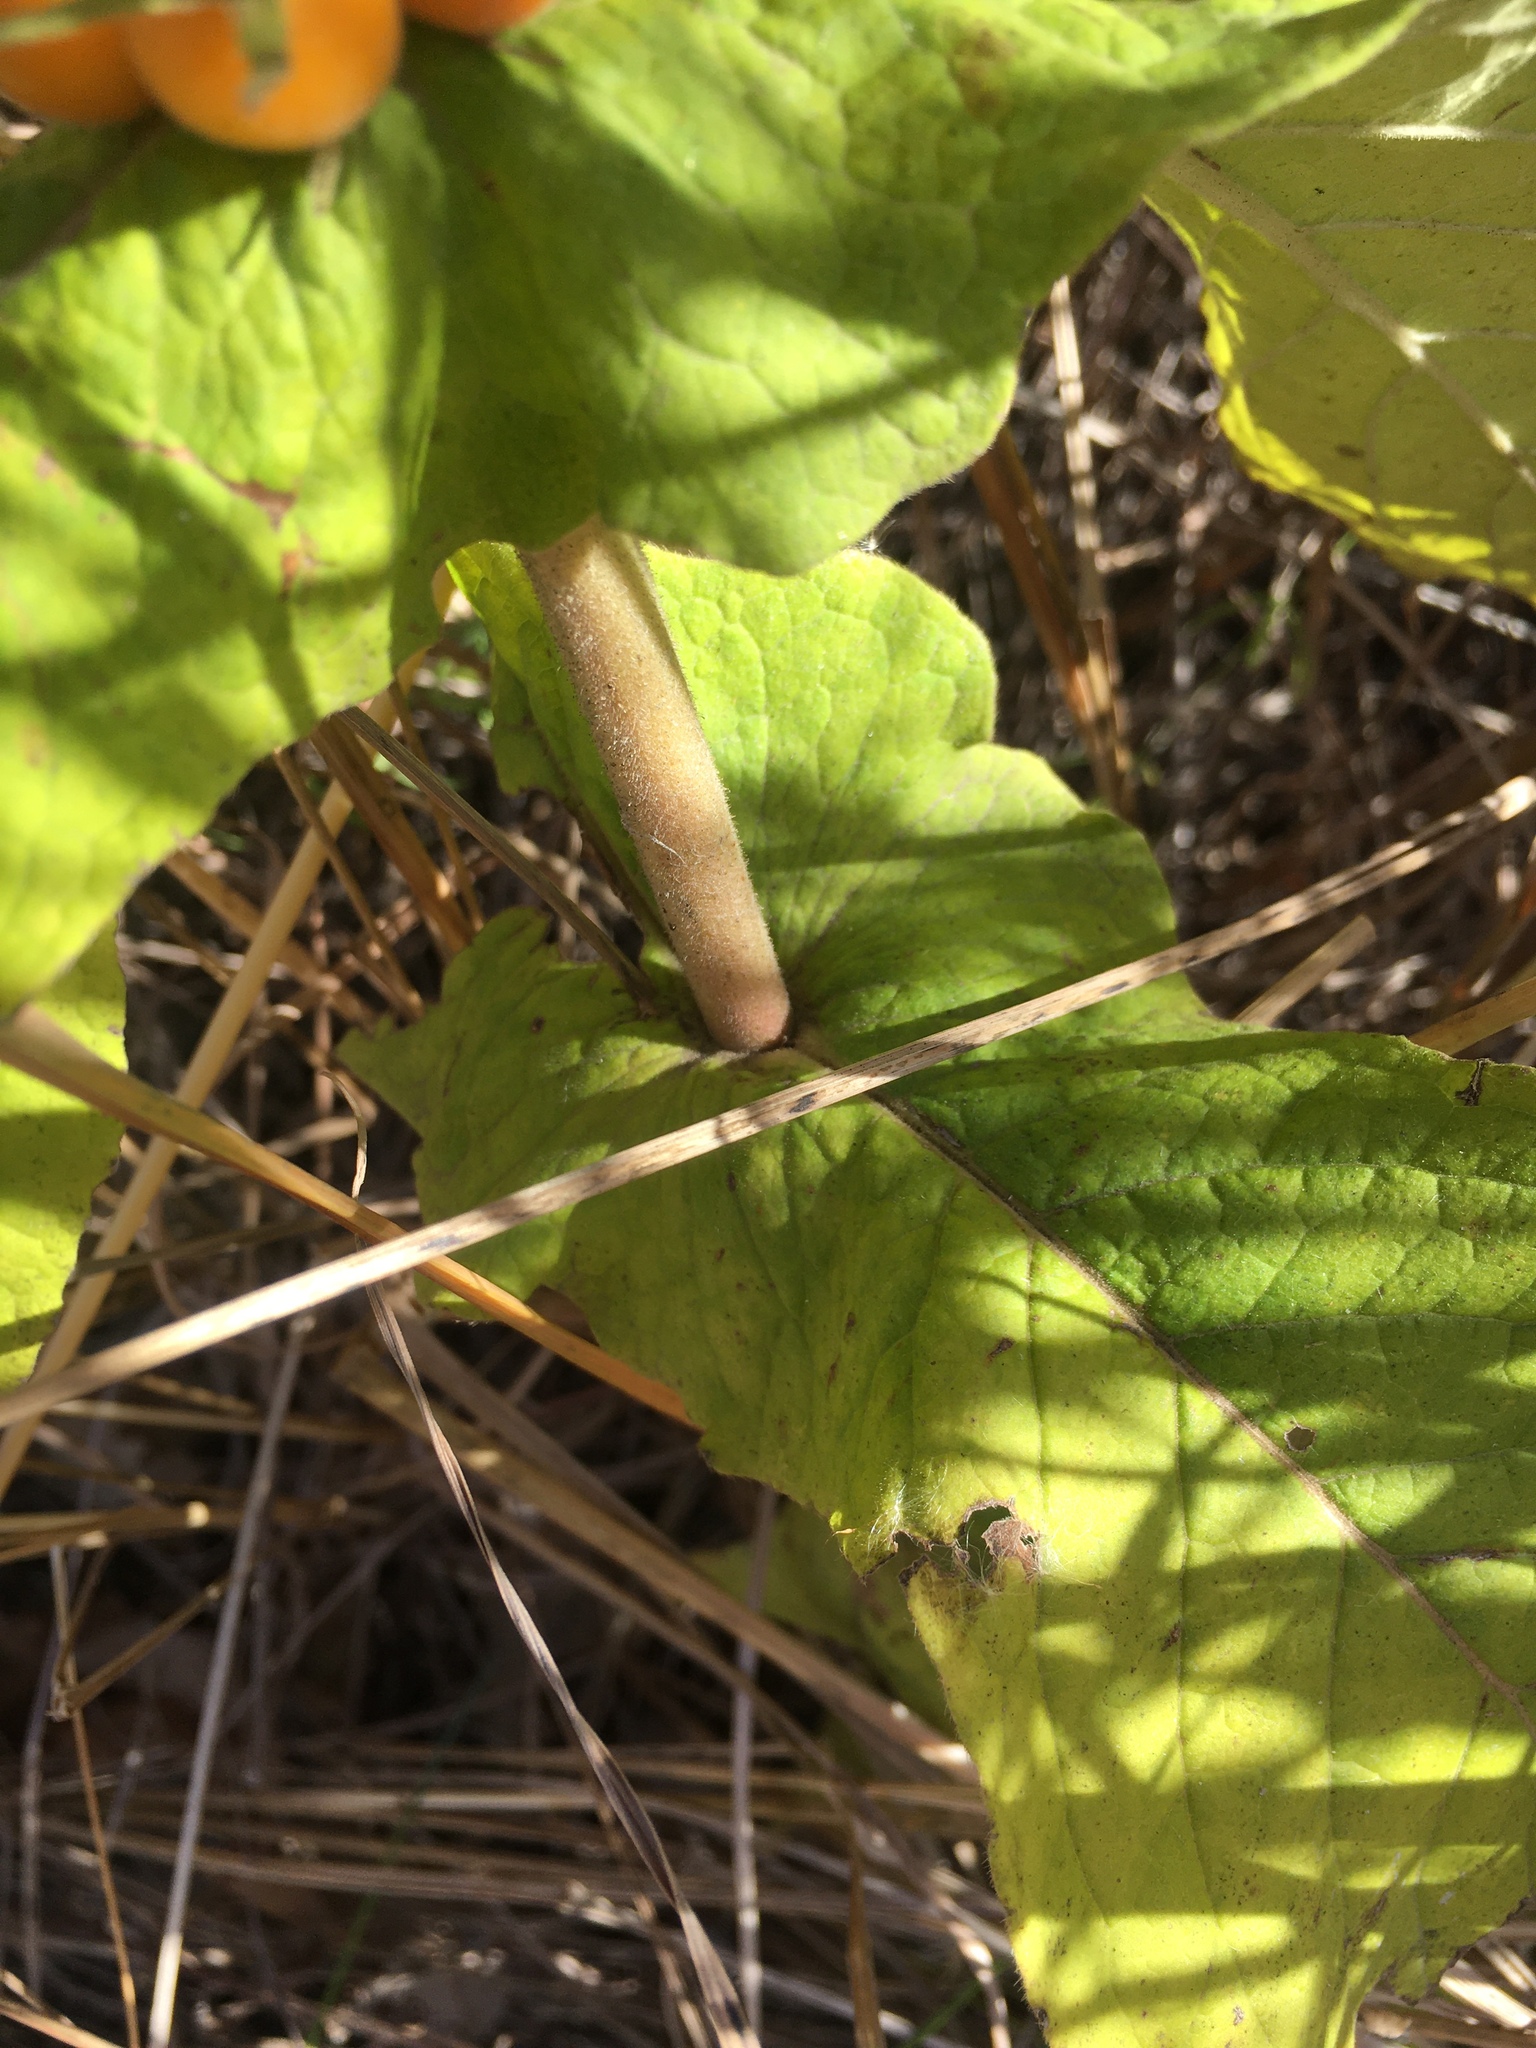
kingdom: Plantae
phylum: Tracheophyta
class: Magnoliopsida
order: Dipsacales
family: Caprifoliaceae
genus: Triosteum
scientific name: Triosteum perfoliatum
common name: Common horse-gentian
